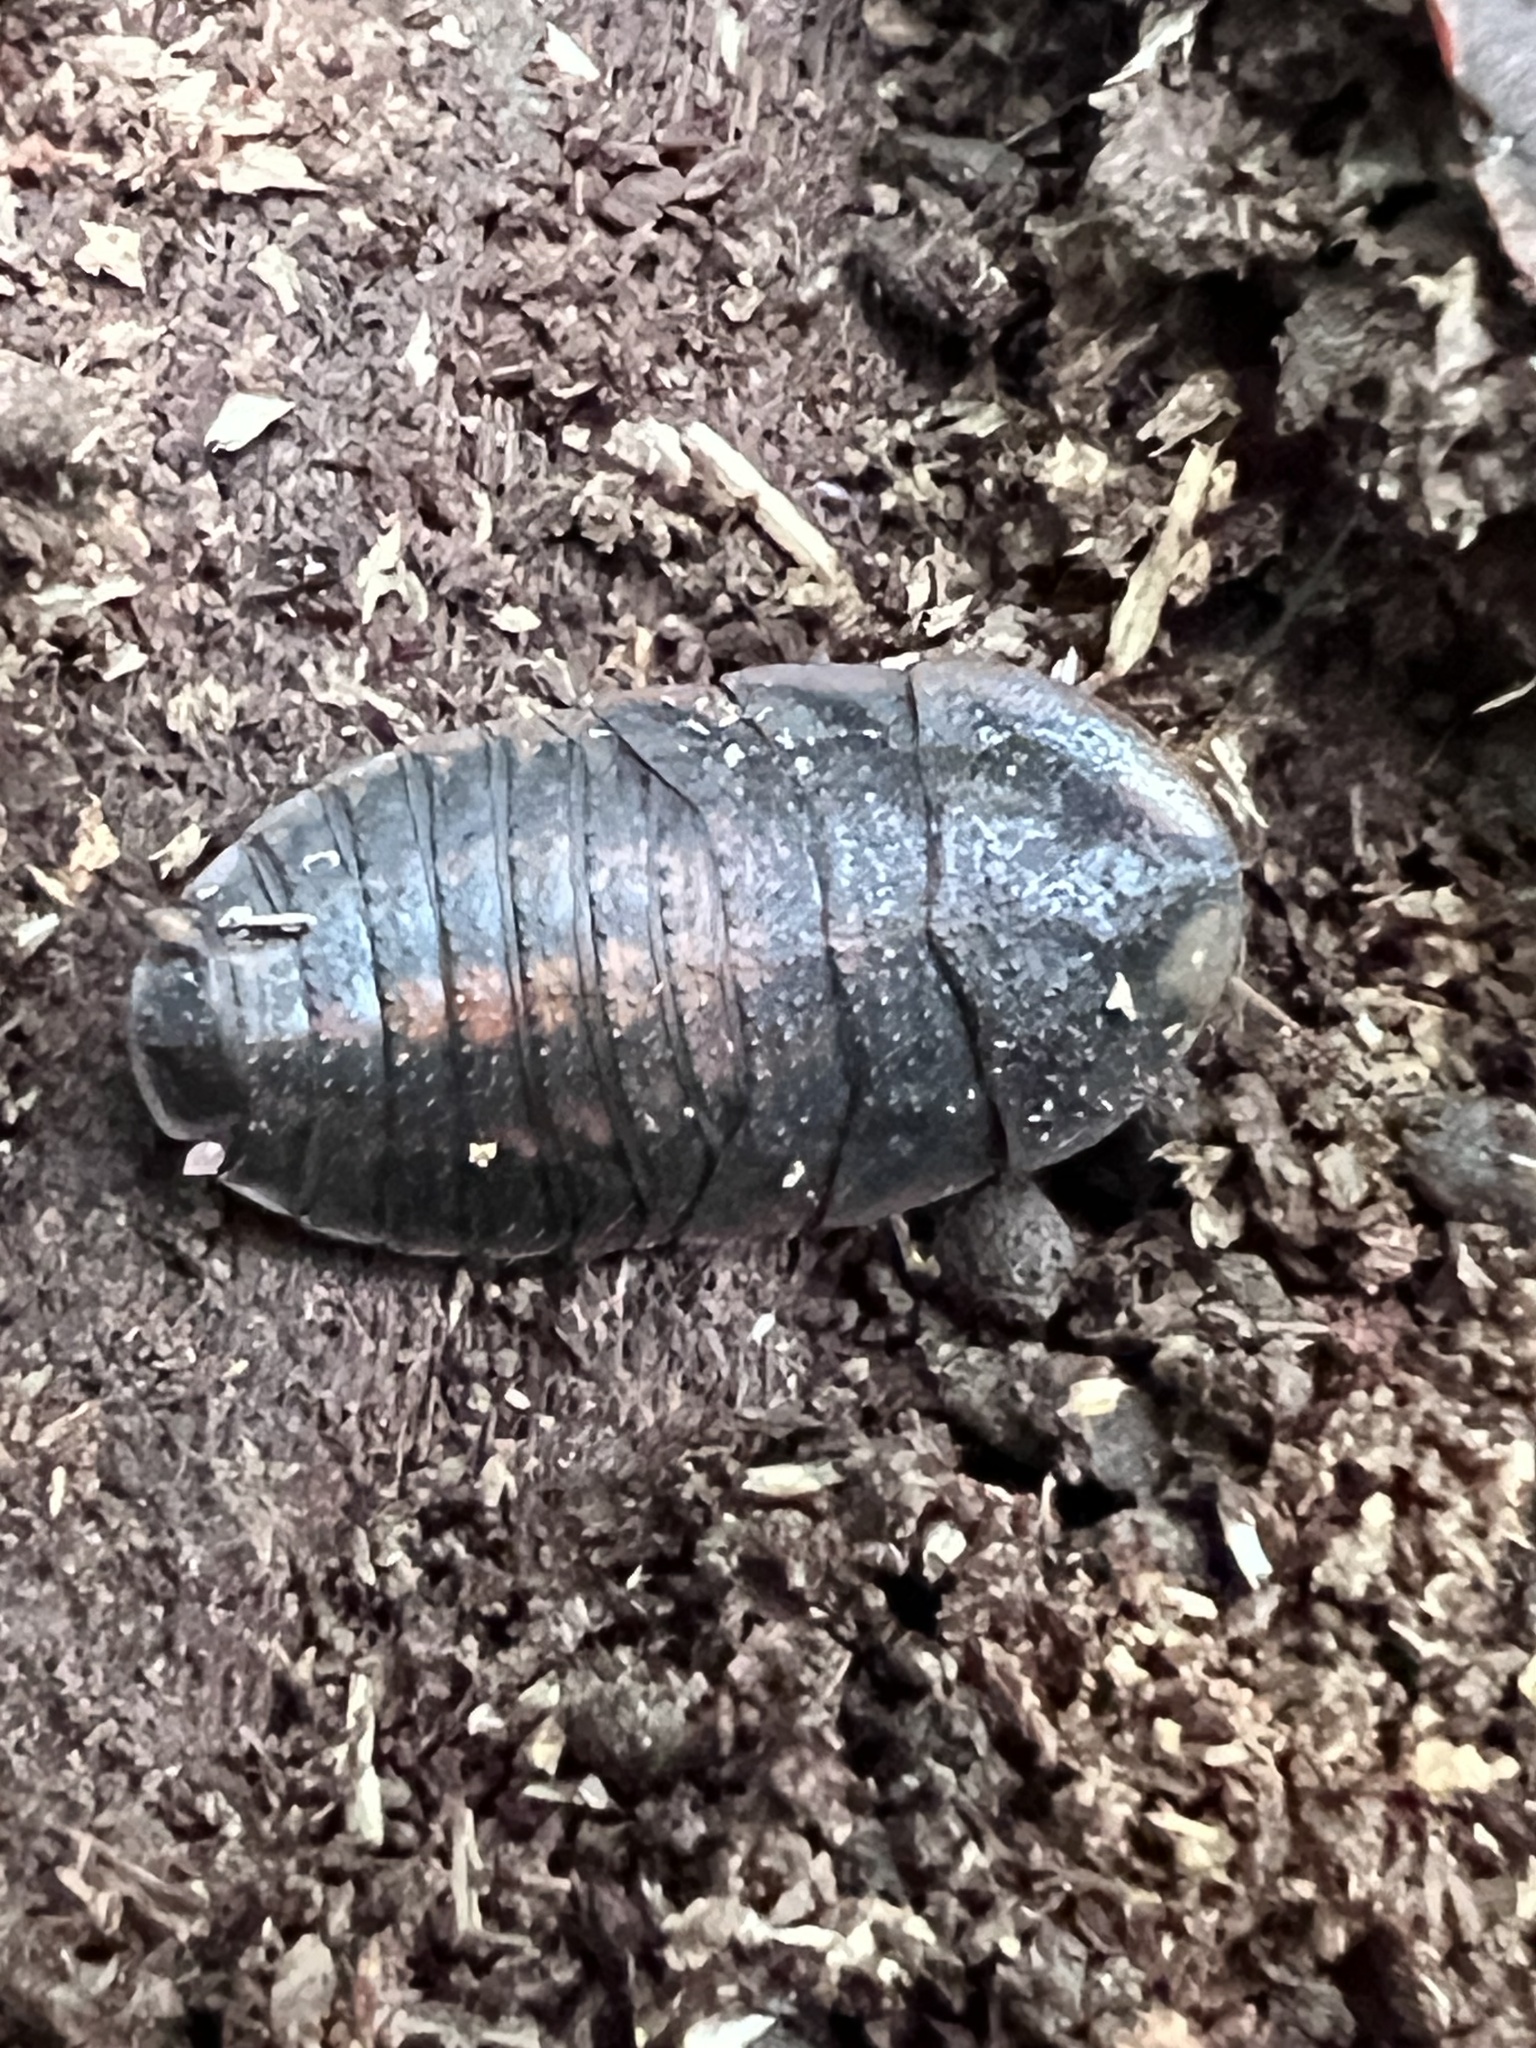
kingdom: Animalia
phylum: Arthropoda
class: Insecta
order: Blattodea
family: Blaberidae
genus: Neolaxta
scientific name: Neolaxta mackerrasae
